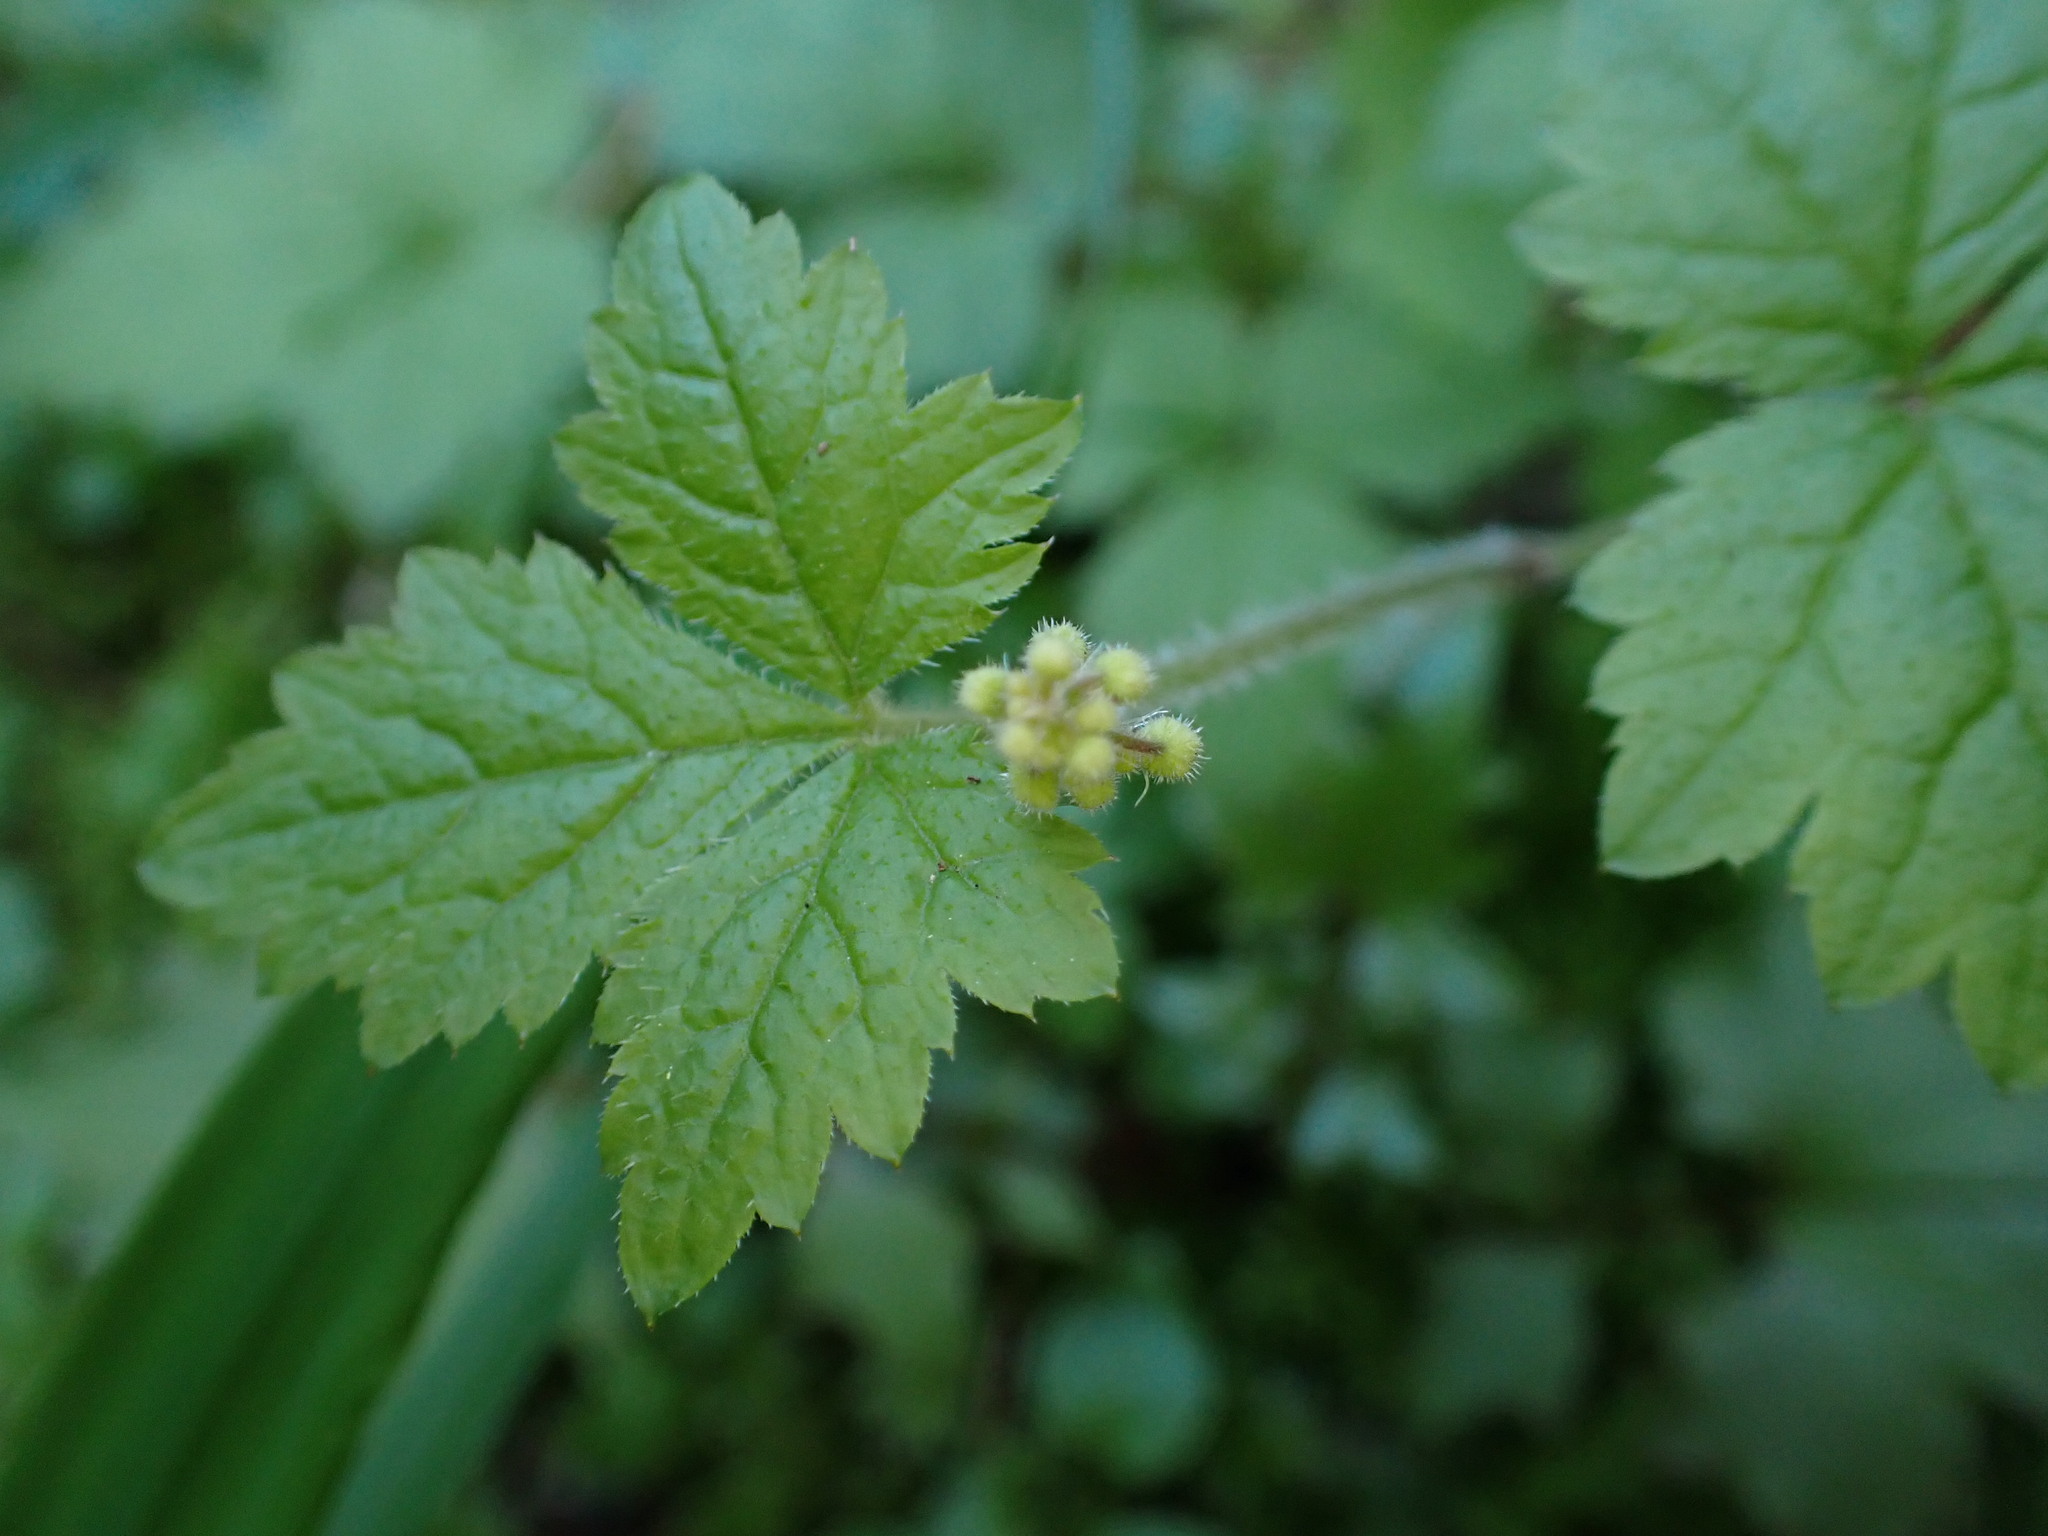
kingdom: Plantae
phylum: Tracheophyta
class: Magnoliopsida
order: Saxifragales
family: Saxifragaceae
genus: Tiarella
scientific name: Tiarella trifoliata
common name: Sugar-scoop
